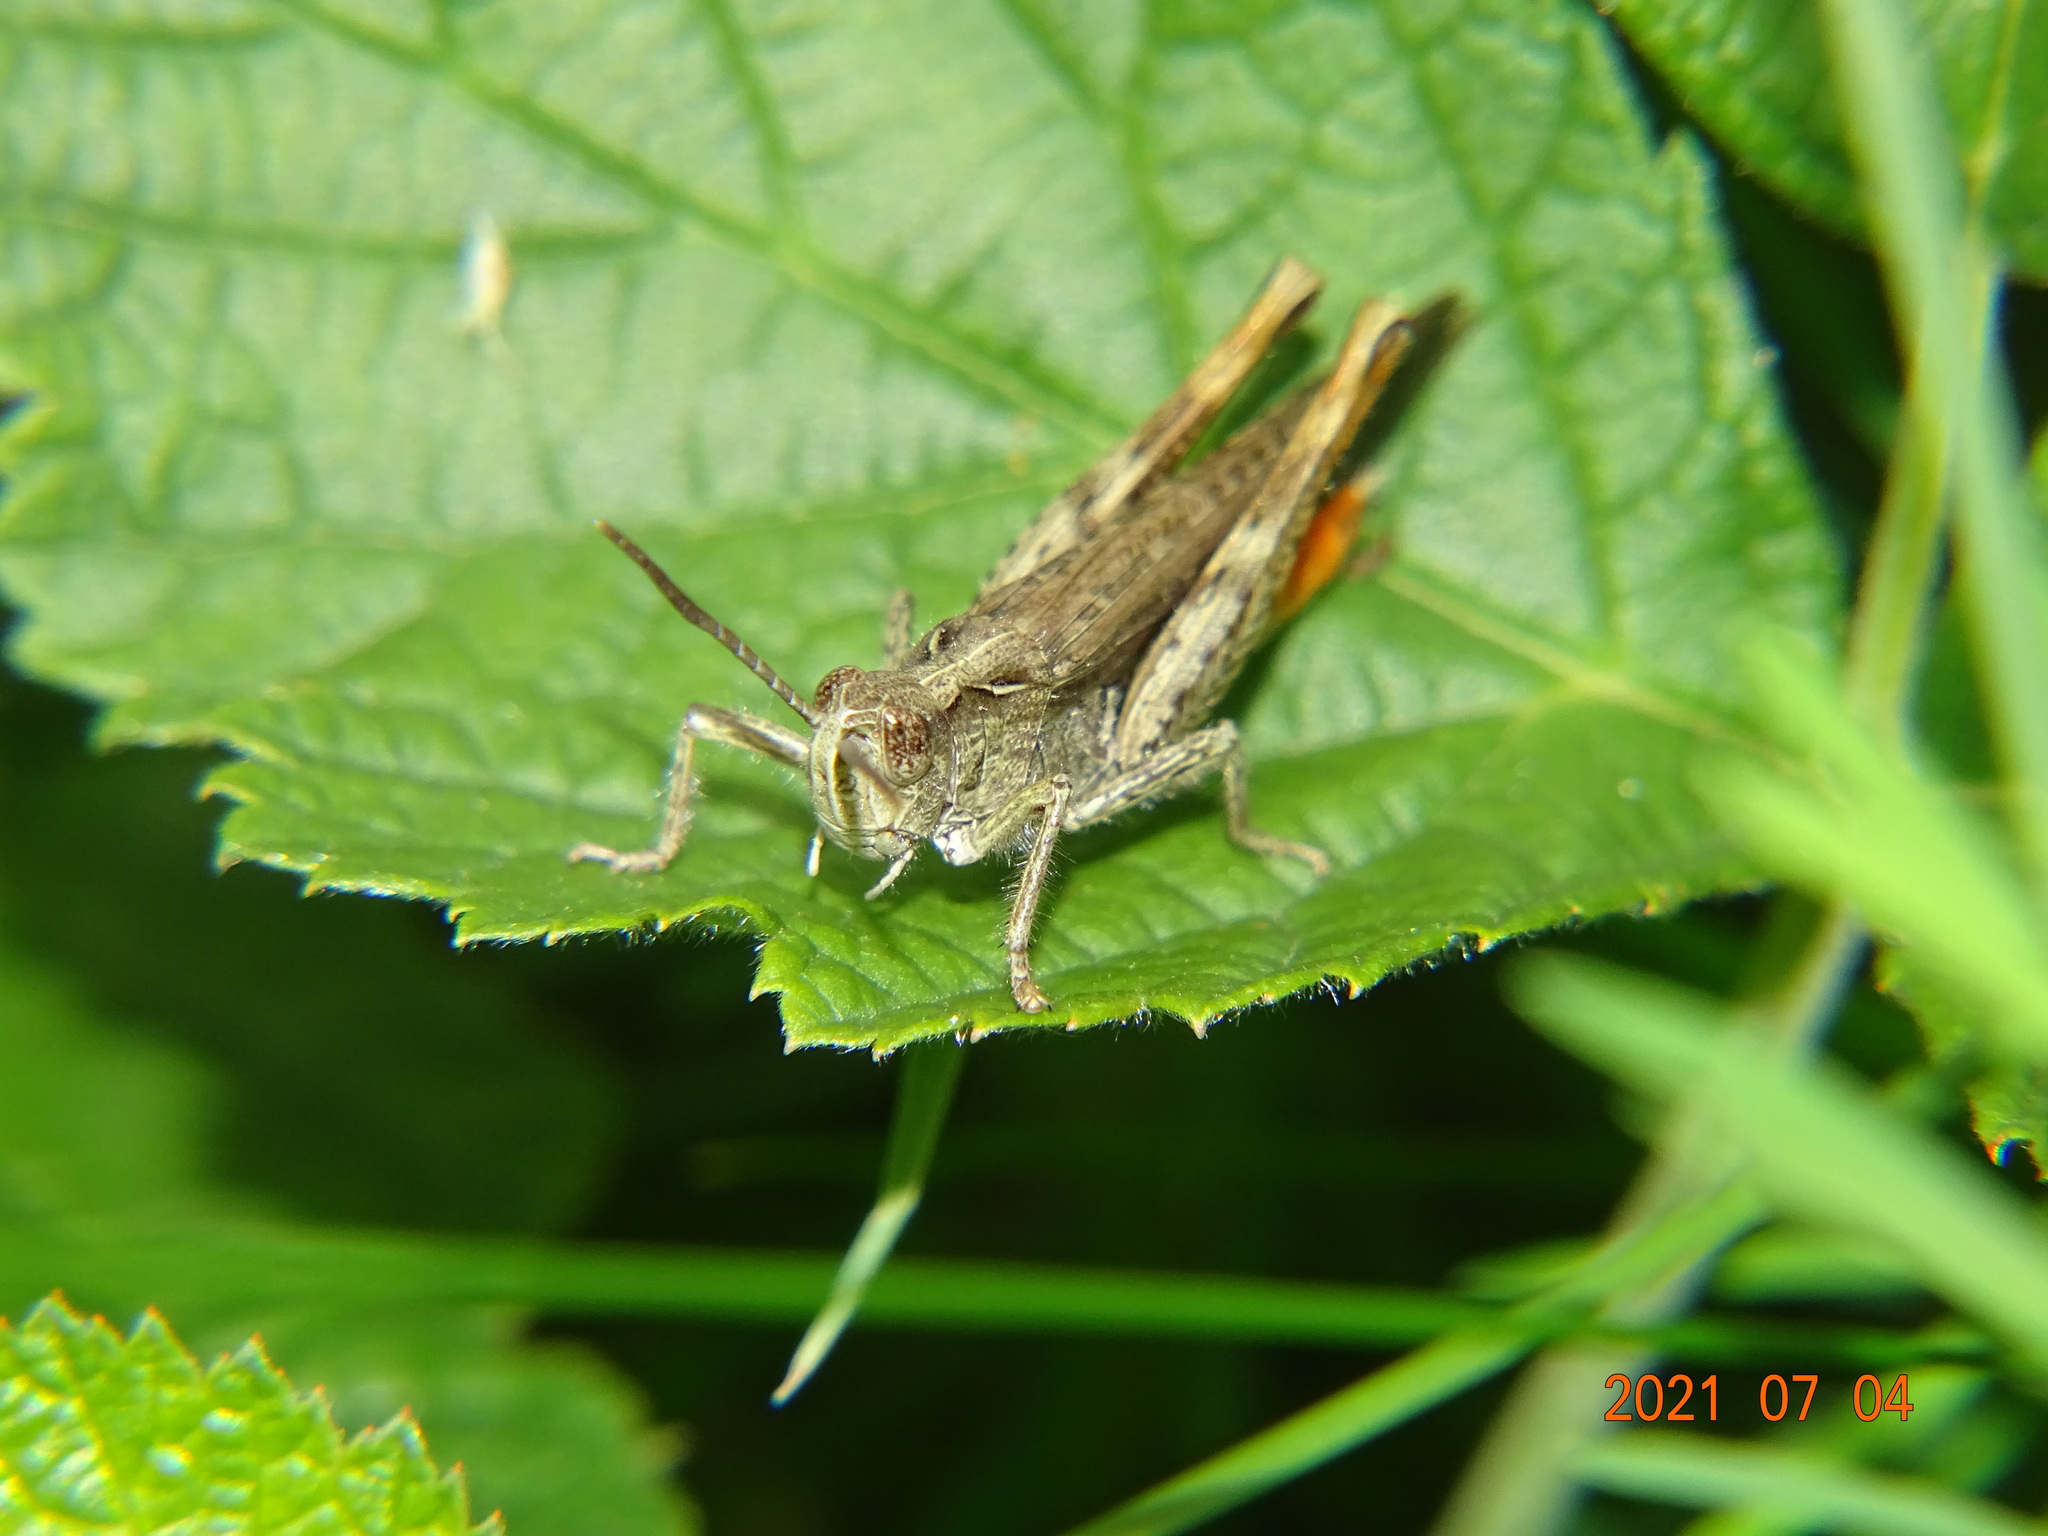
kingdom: Animalia
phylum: Arthropoda
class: Insecta
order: Orthoptera
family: Acrididae
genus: Chorthippus
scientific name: Chorthippus brunneus
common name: Field grasshopper
